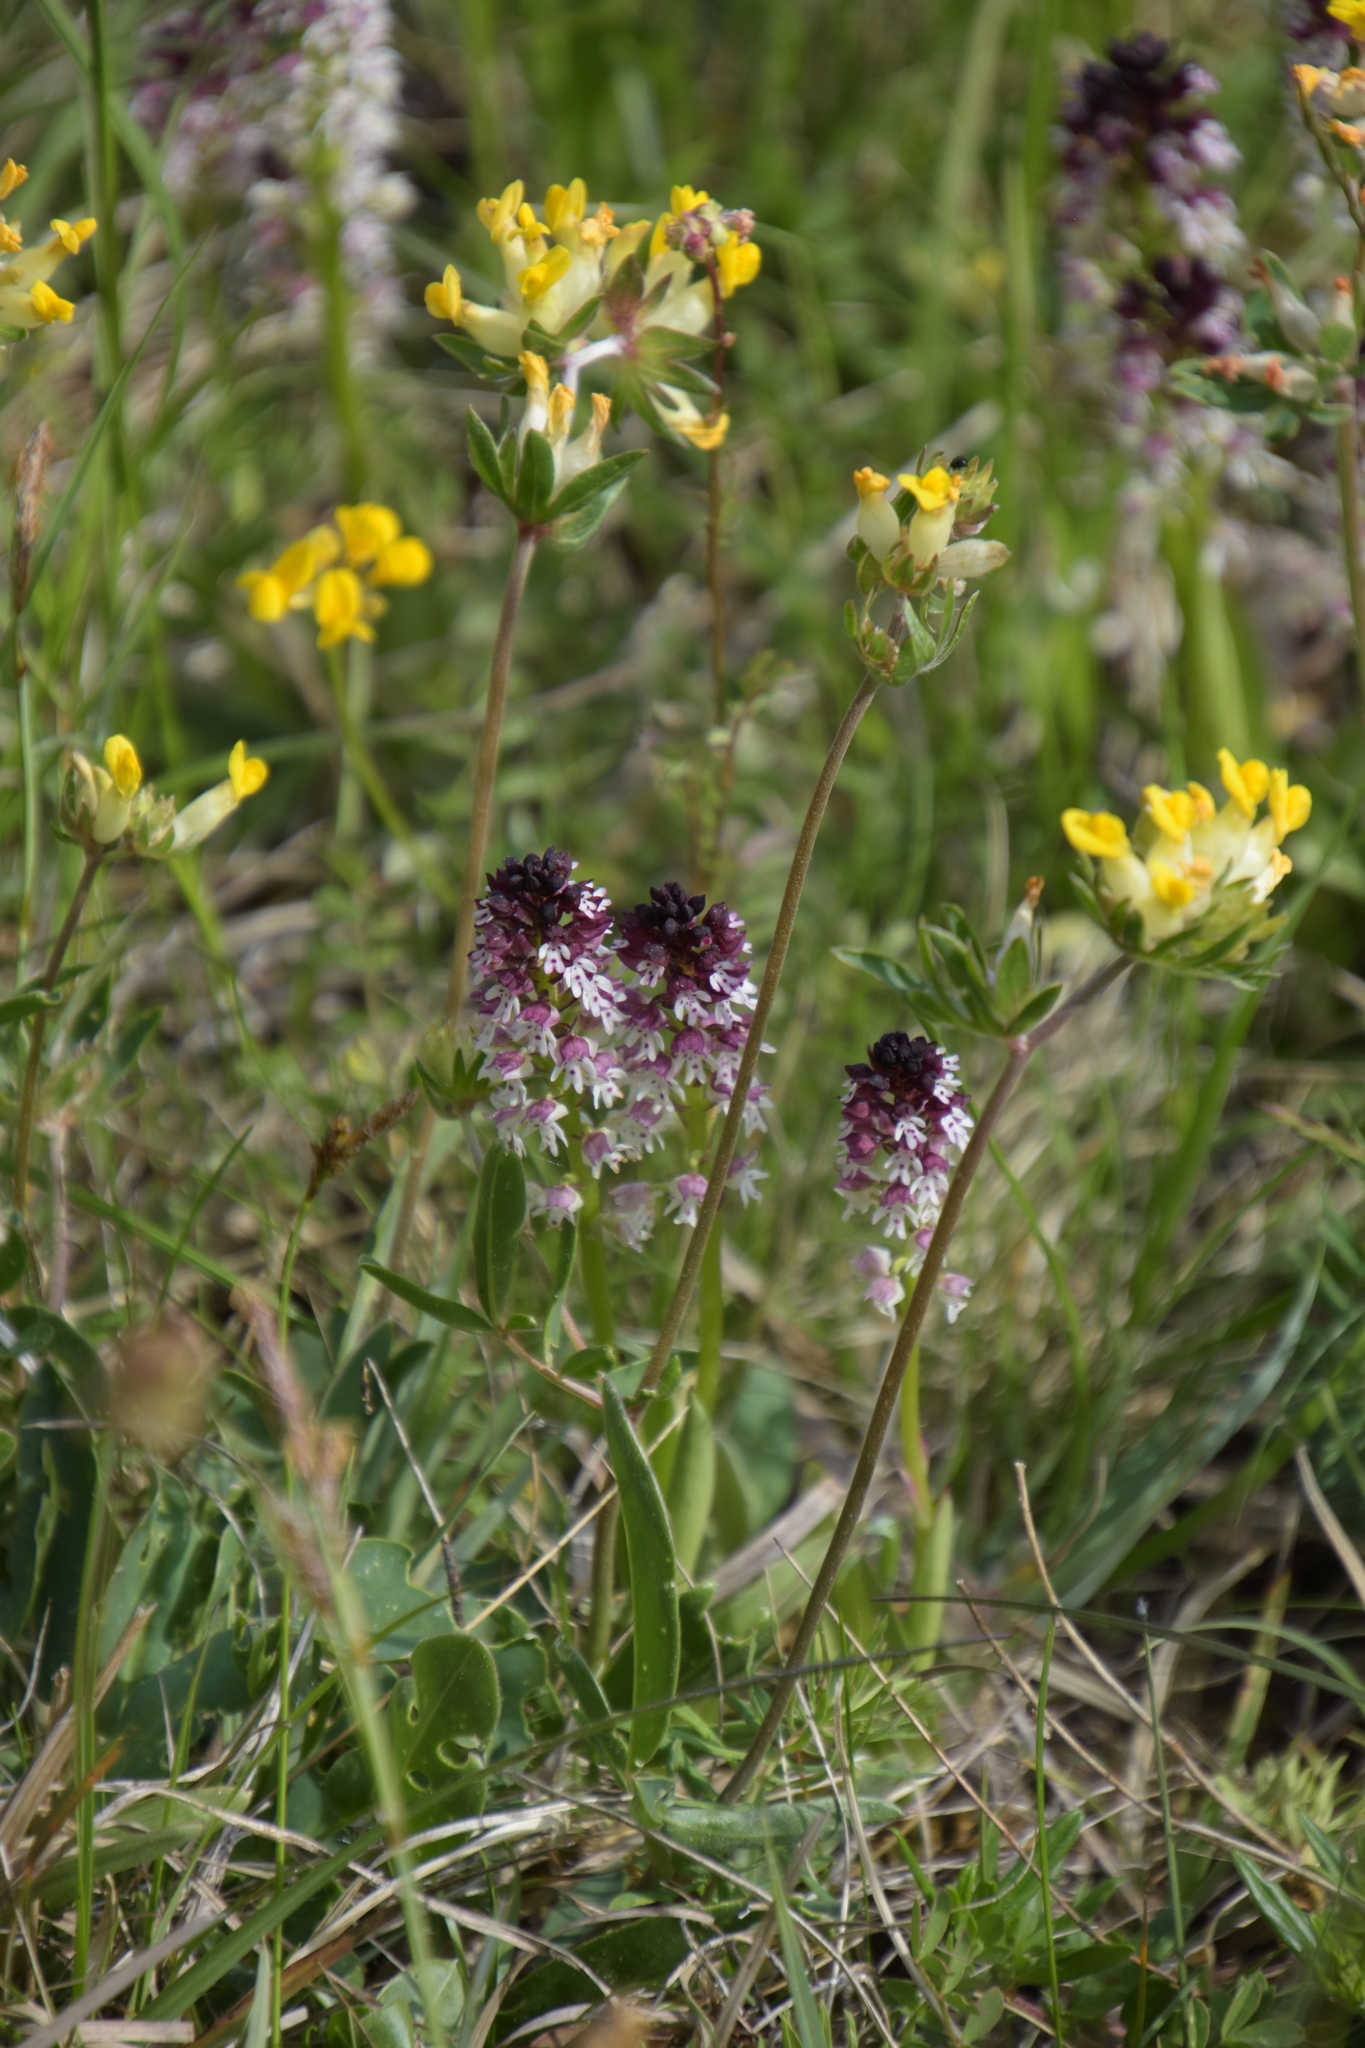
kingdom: Plantae
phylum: Tracheophyta
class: Liliopsida
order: Asparagales
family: Orchidaceae
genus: Neotinea
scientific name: Neotinea ustulata
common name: Burnt orchid
